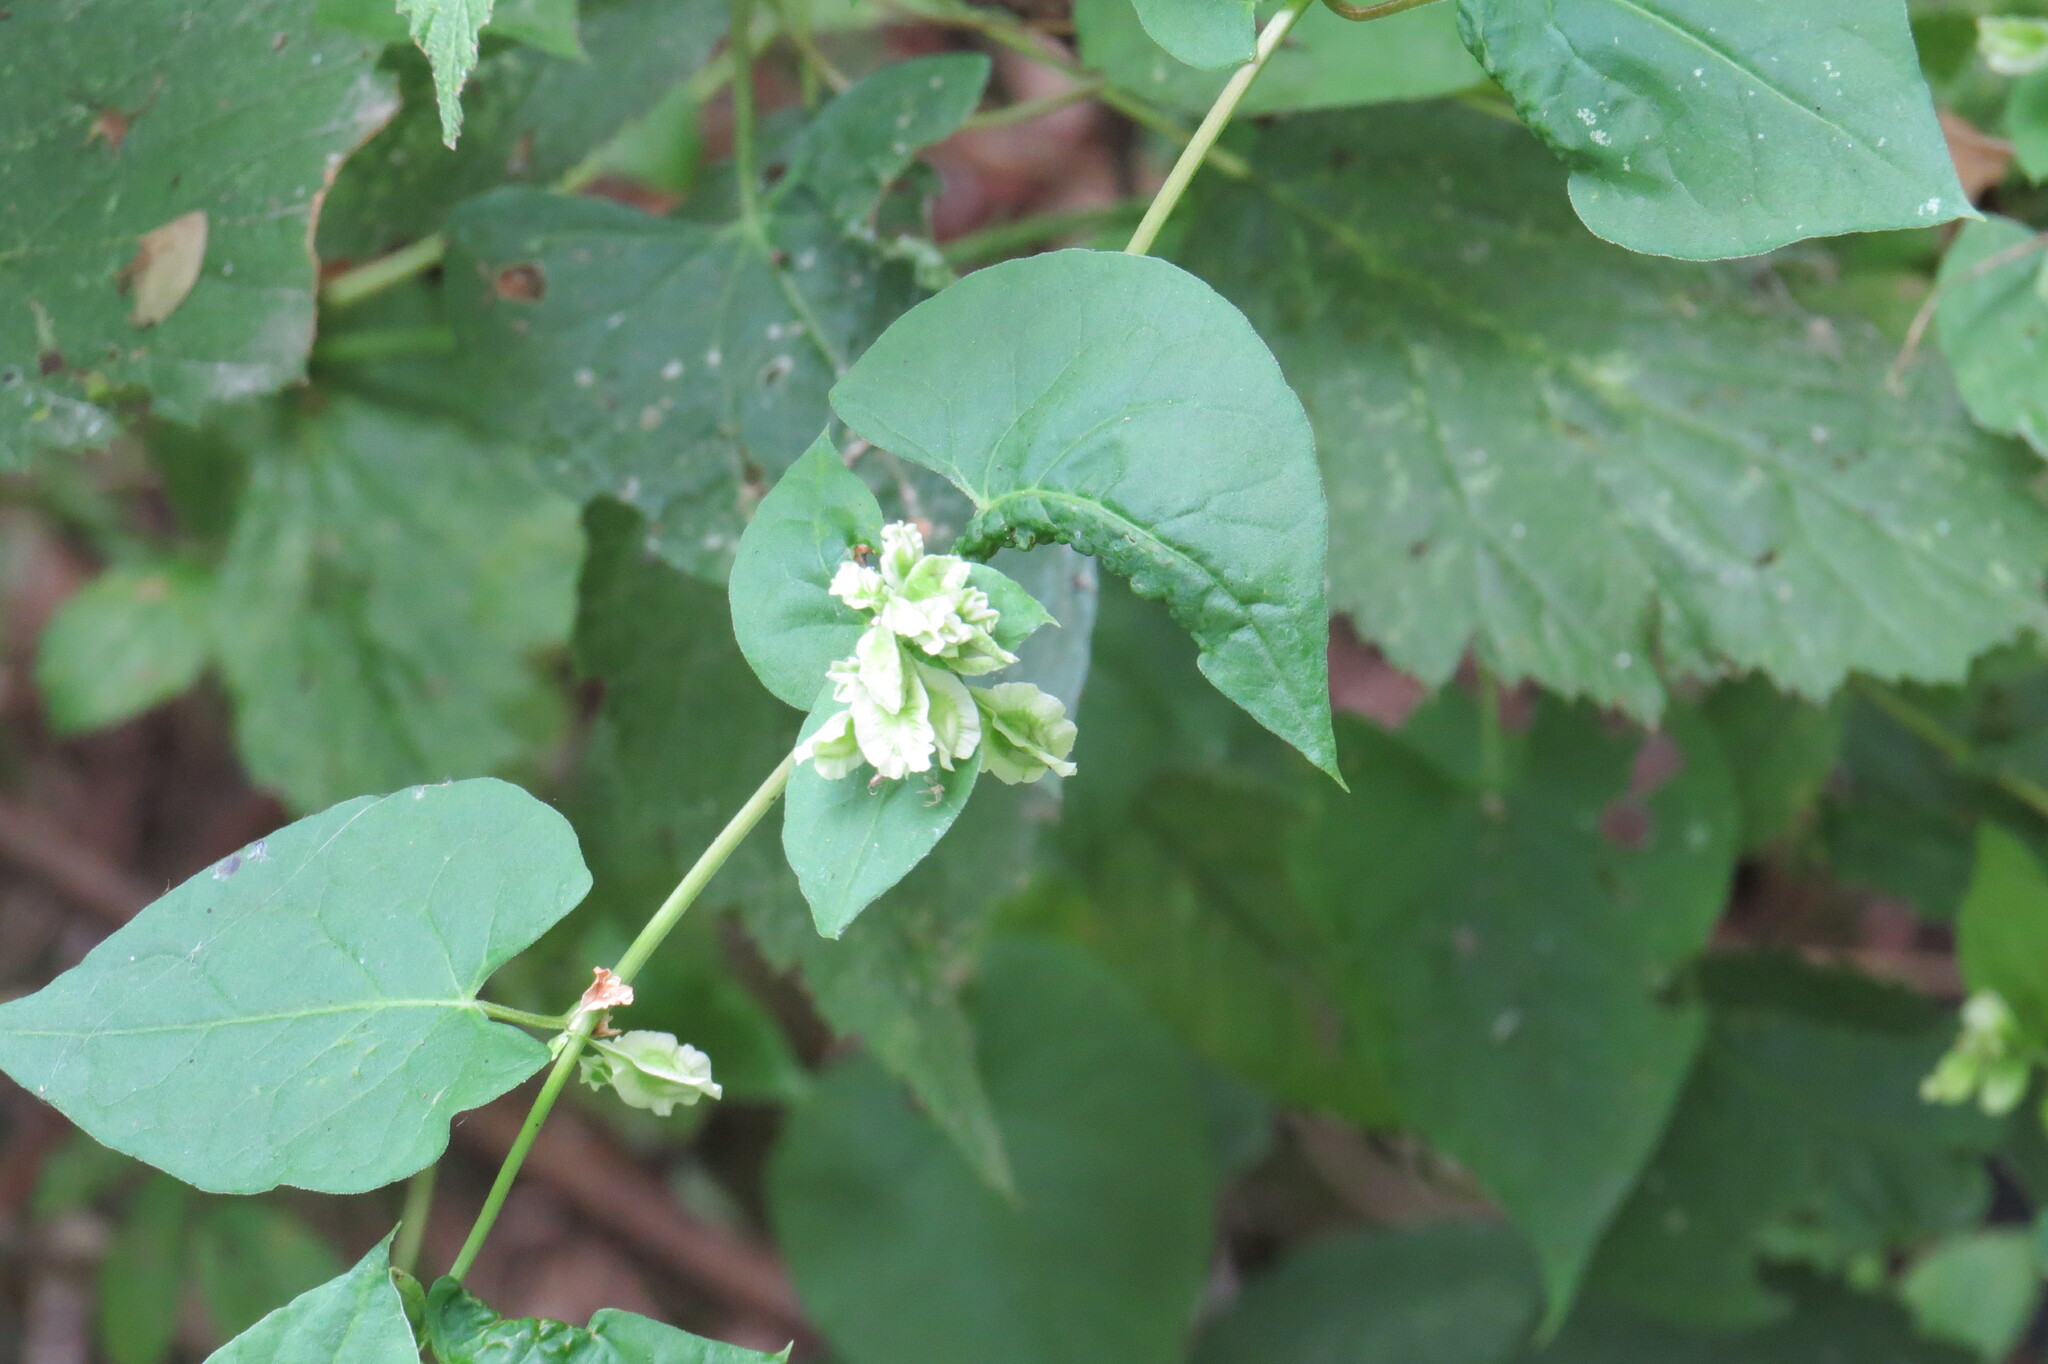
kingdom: Plantae
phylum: Tracheophyta
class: Magnoliopsida
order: Caryophyllales
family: Polygonaceae
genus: Fallopia
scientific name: Fallopia scandens
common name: Climbing false buckwheat
